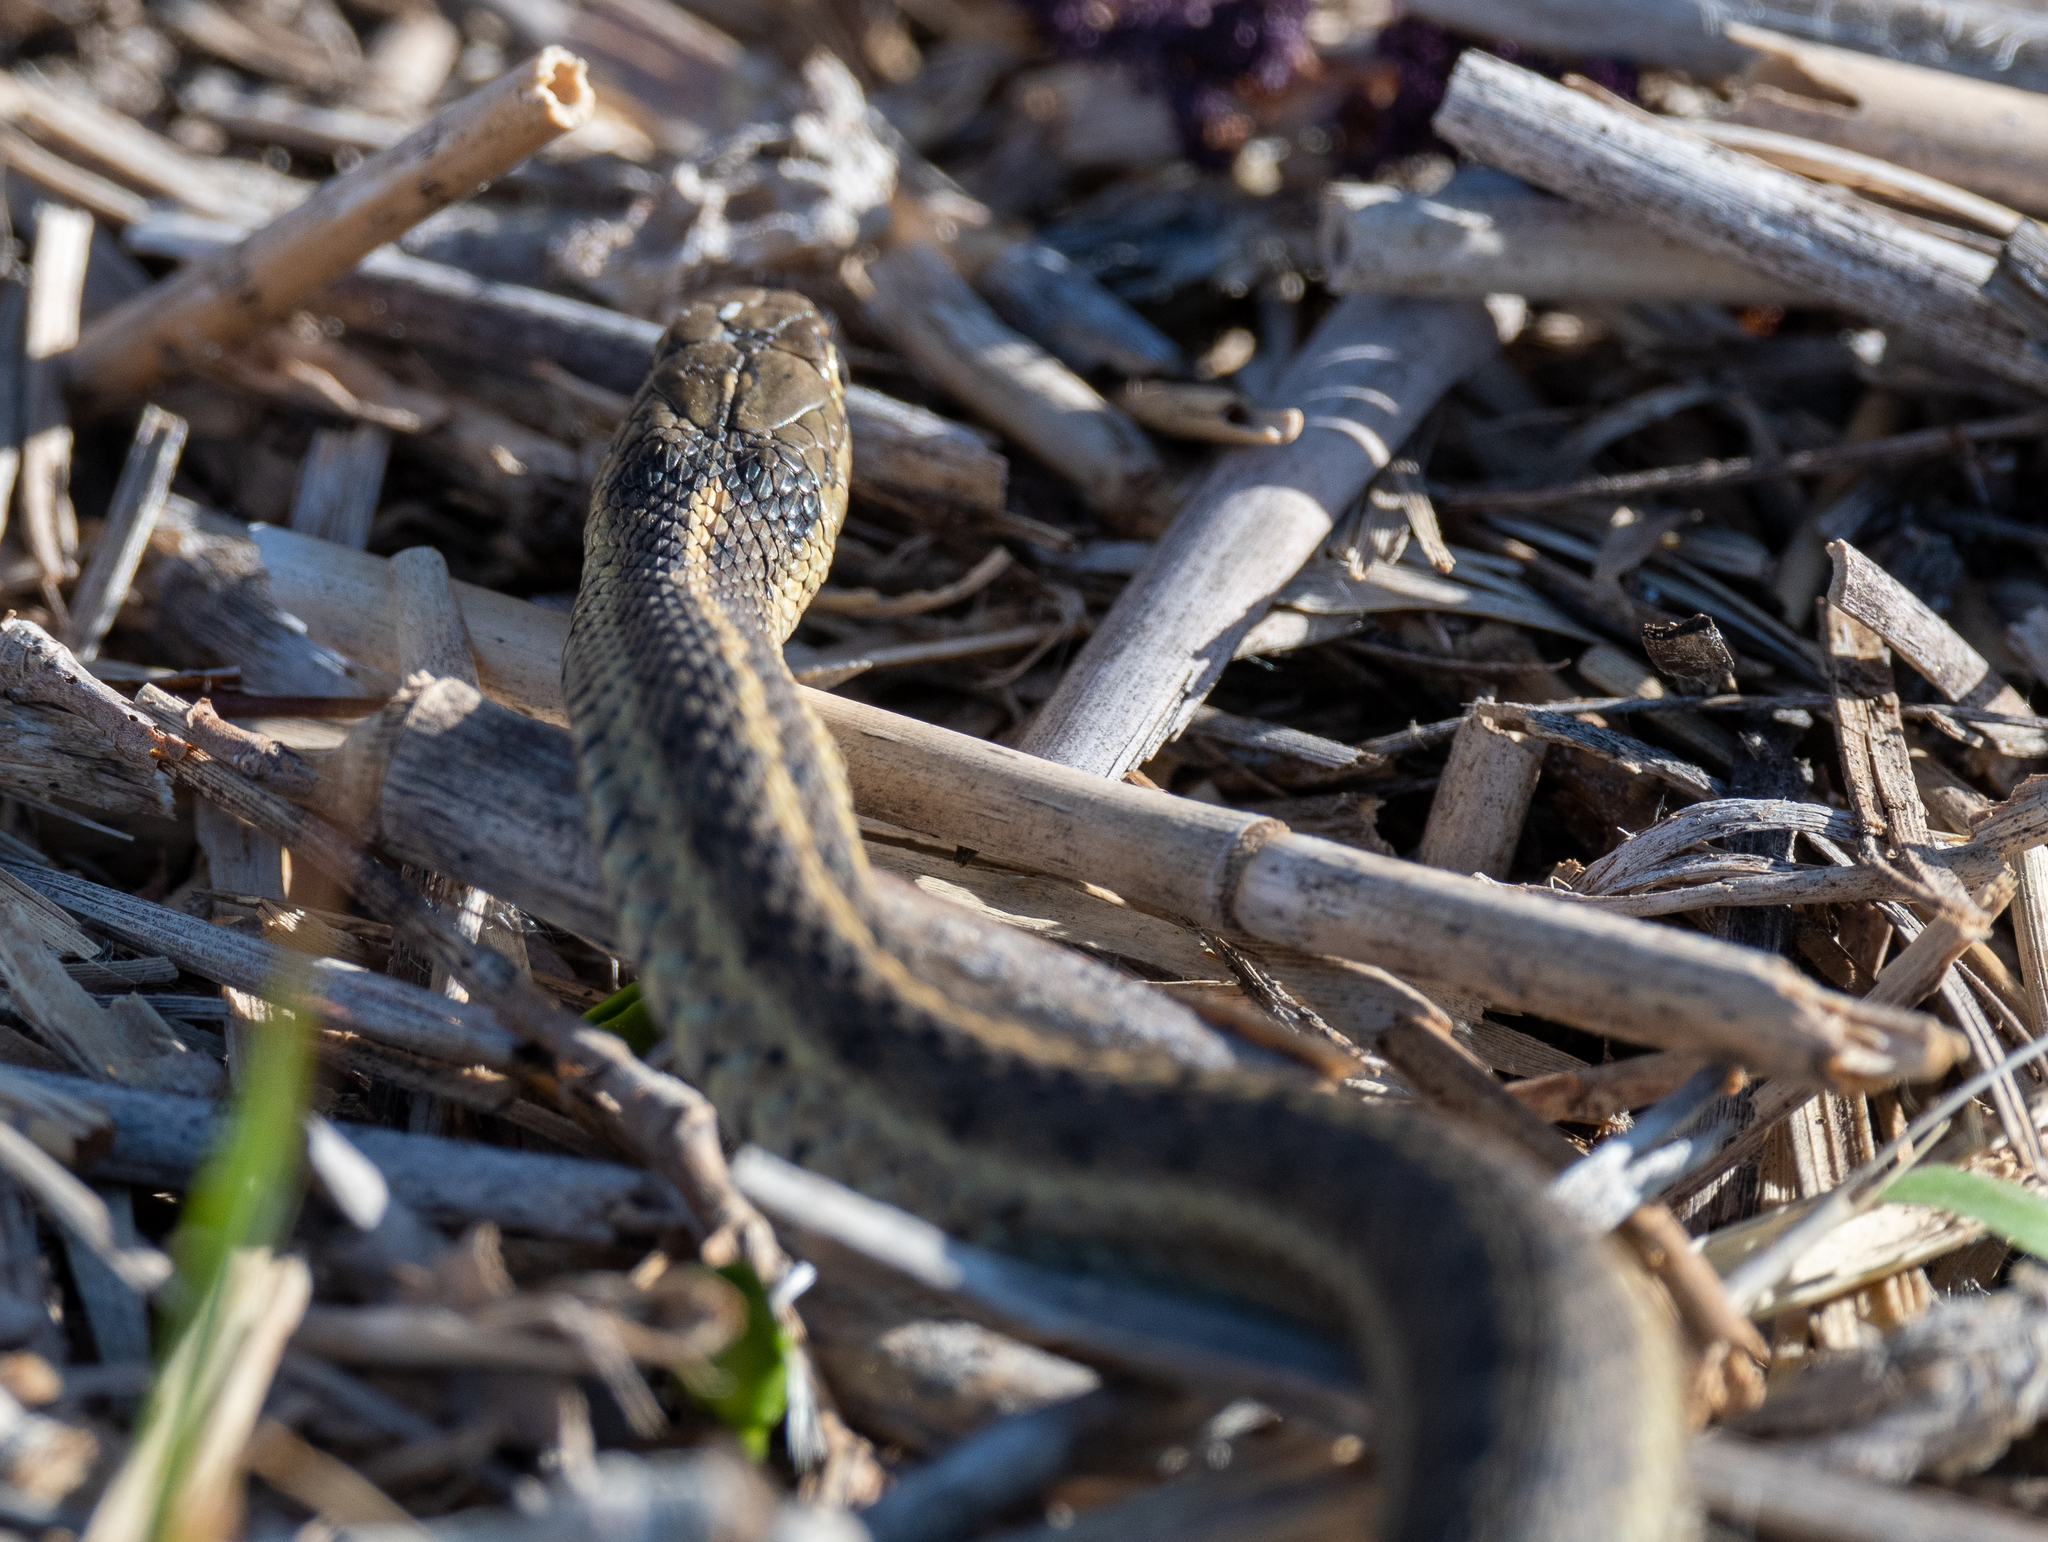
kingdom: Animalia
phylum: Chordata
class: Squamata
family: Colubridae
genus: Thamnophis
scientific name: Thamnophis elegans
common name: Western terrestrial garter snake
